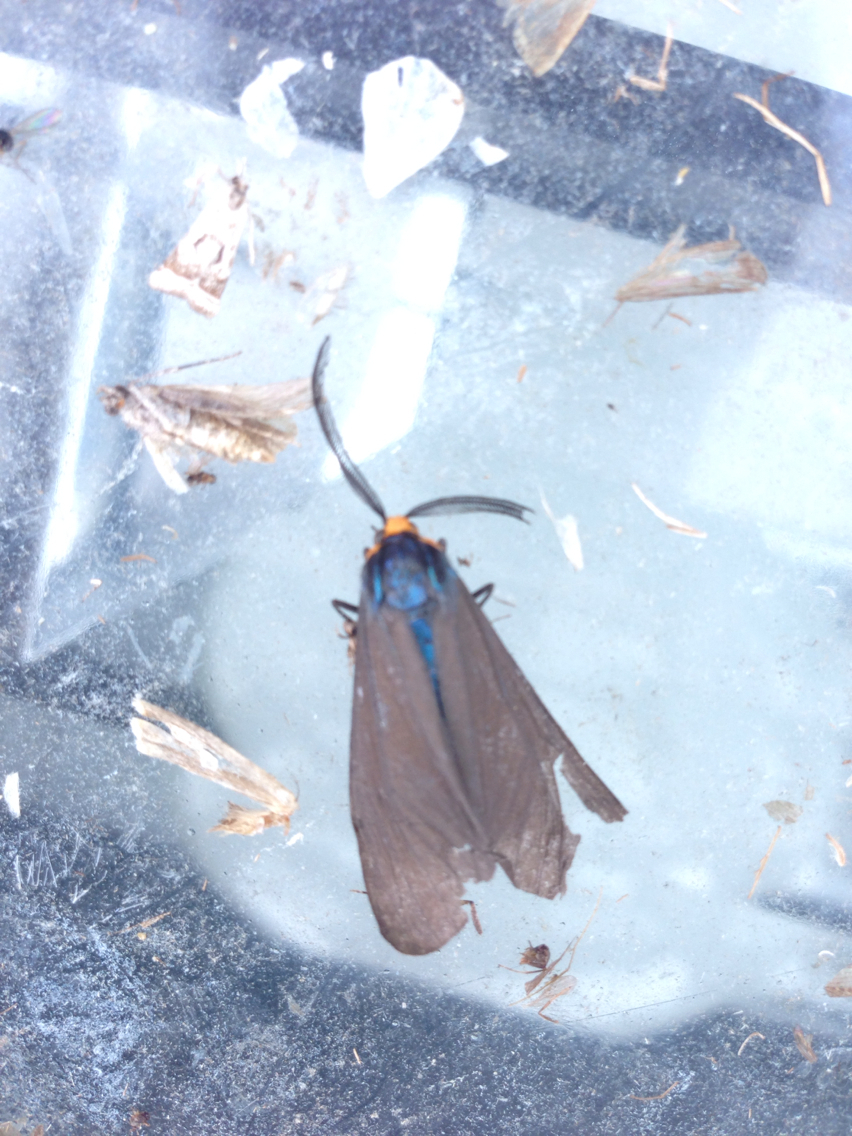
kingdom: Animalia
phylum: Arthropoda
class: Insecta
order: Lepidoptera
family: Erebidae
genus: Ctenucha
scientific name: Ctenucha virginica
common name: Virginia ctenucha moth
